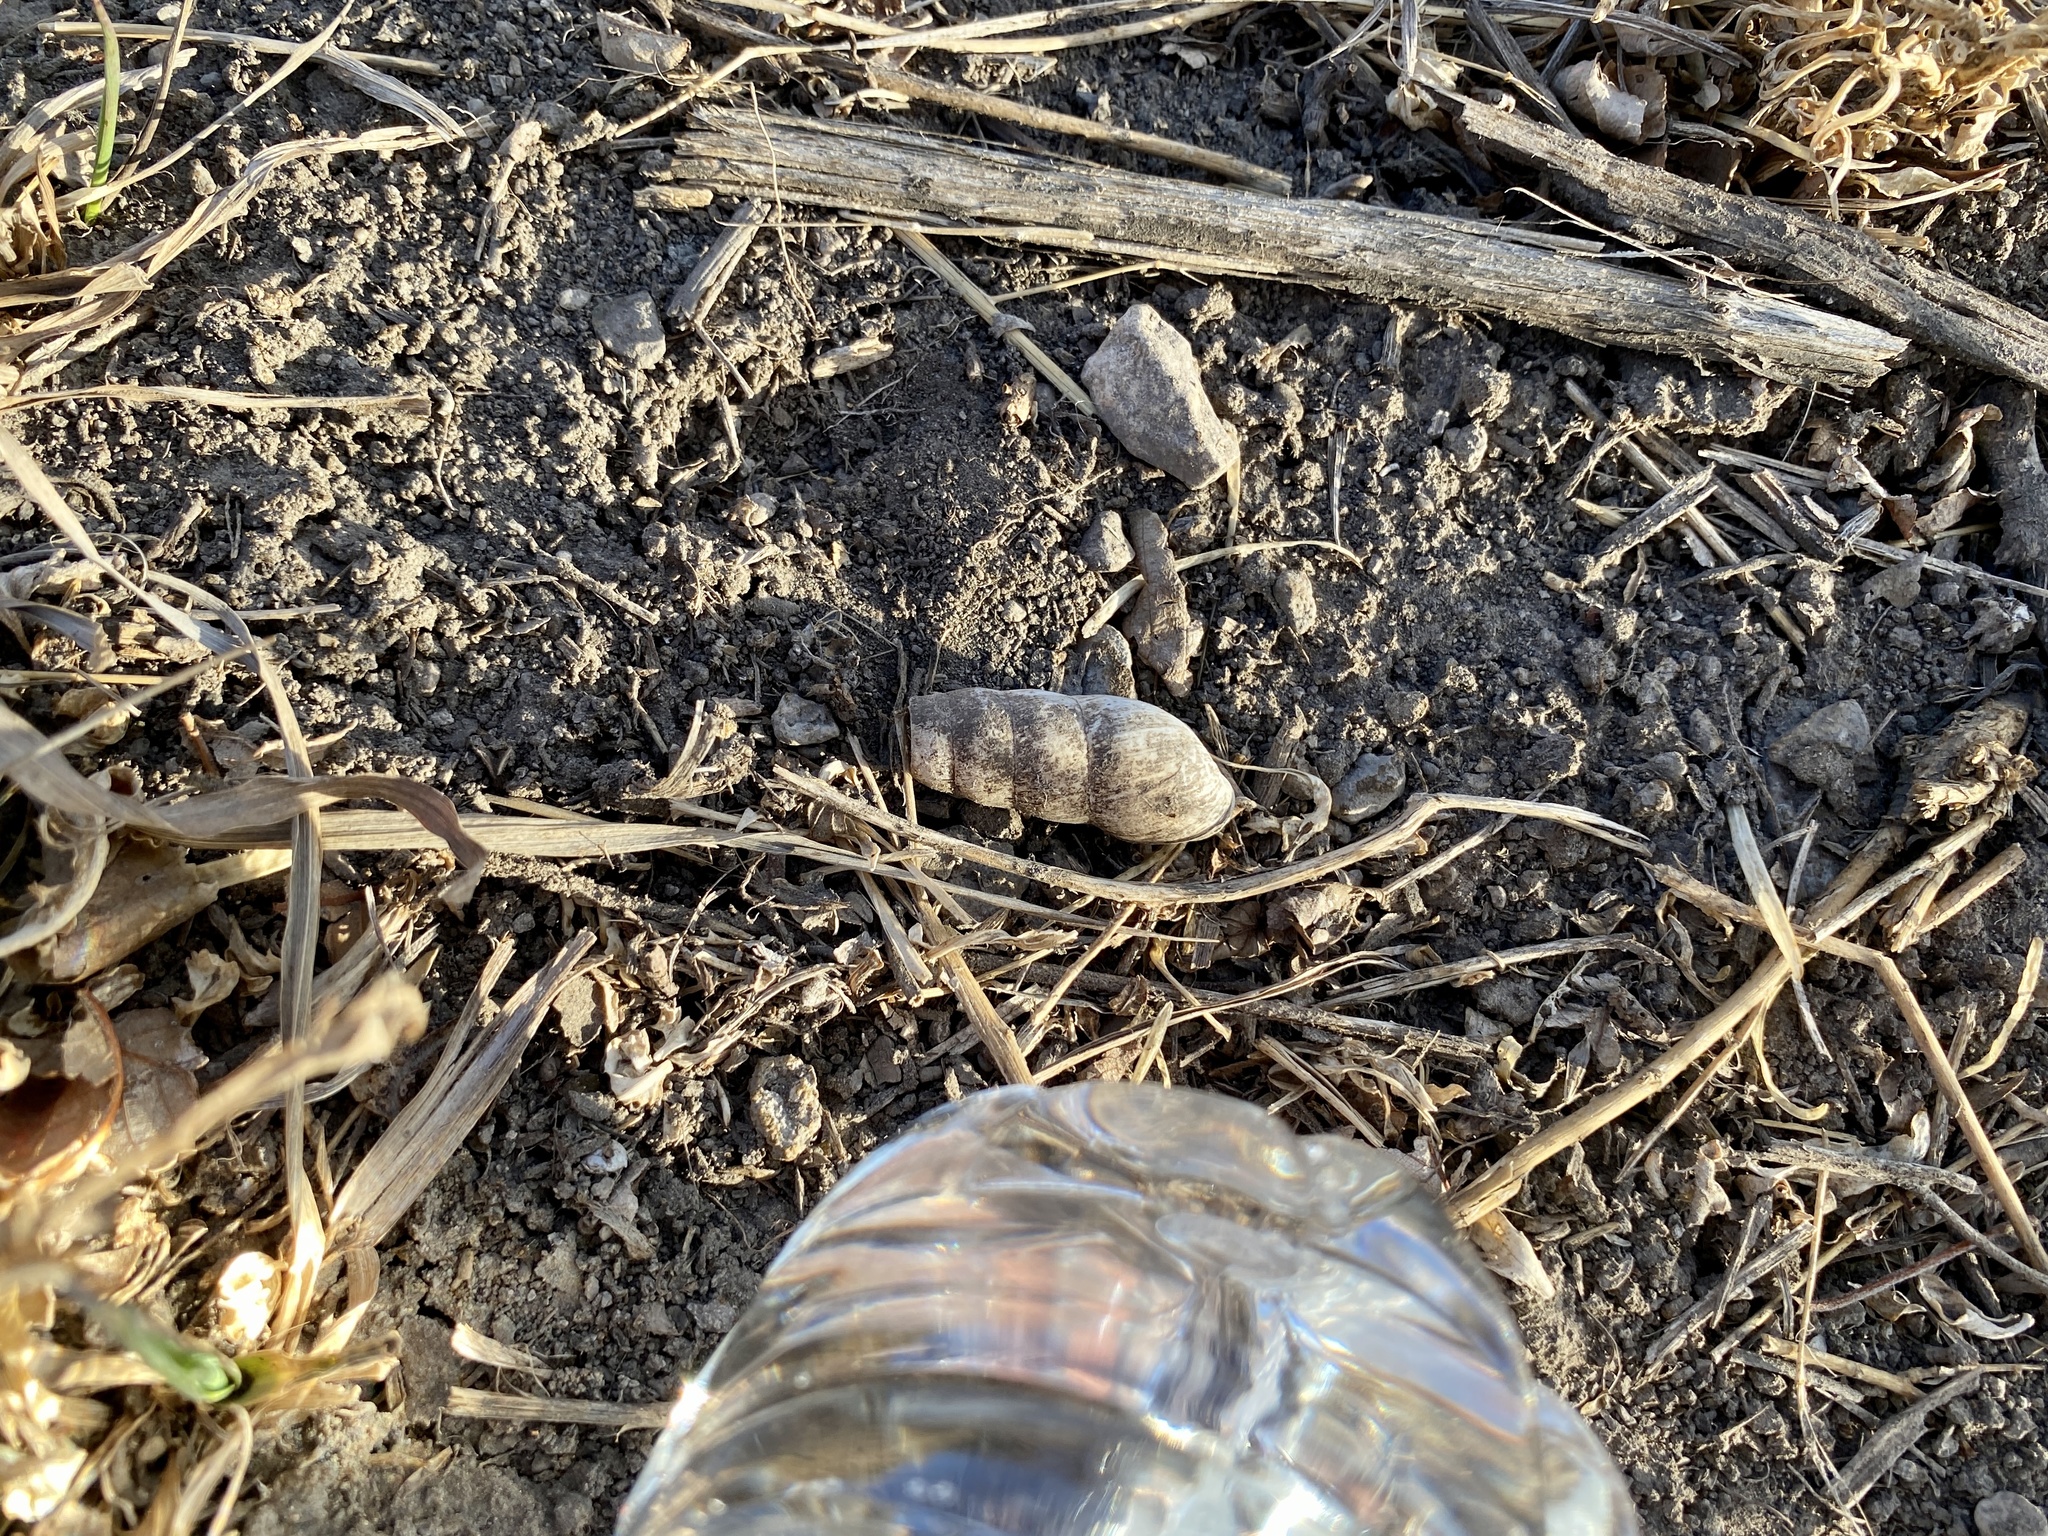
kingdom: Animalia
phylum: Mollusca
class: Gastropoda
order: Stylommatophora
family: Achatinidae
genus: Rumina
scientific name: Rumina decollata
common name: Decollate snail
